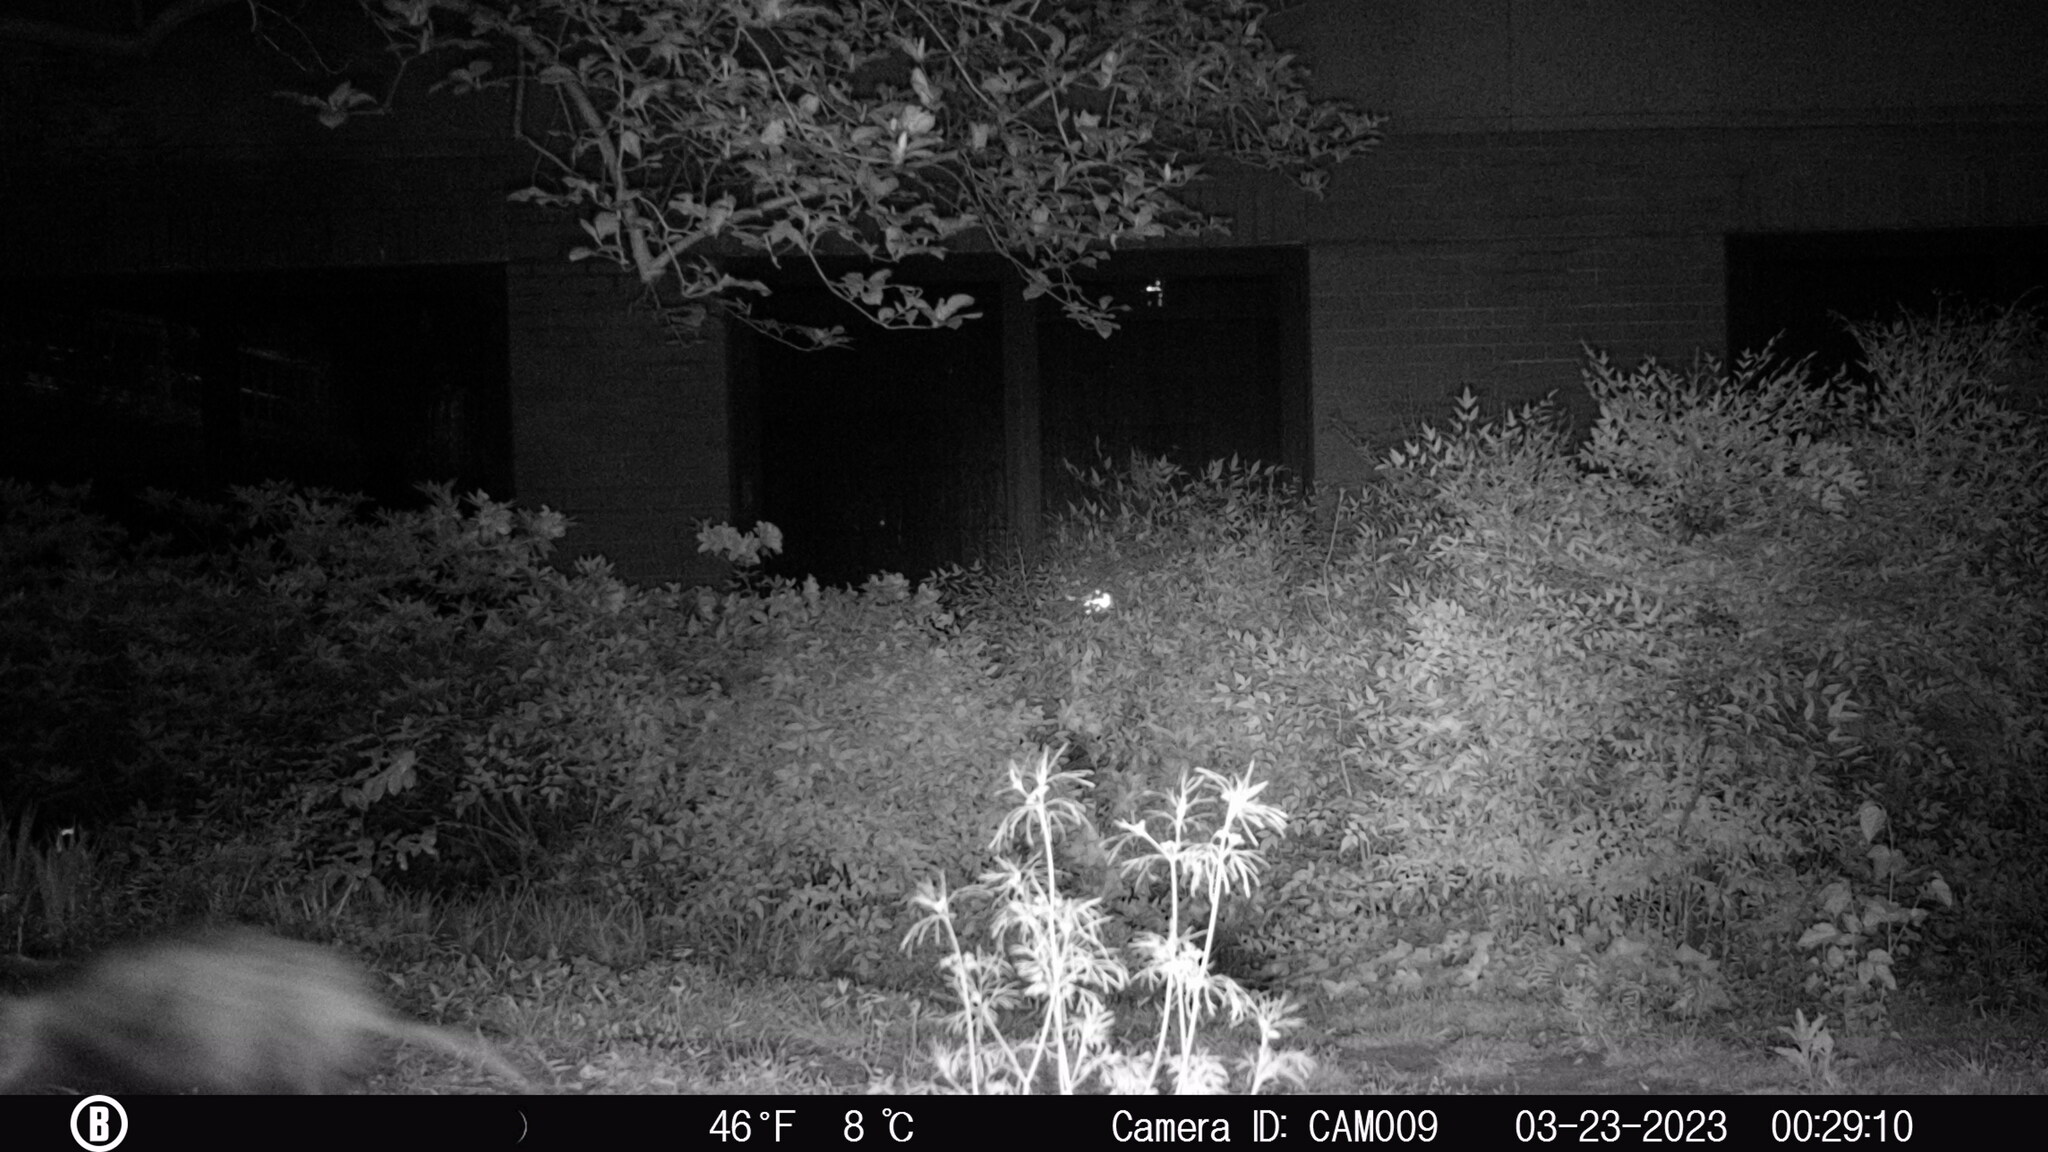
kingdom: Animalia
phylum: Chordata
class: Mammalia
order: Didelphimorphia
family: Didelphidae
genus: Didelphis
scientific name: Didelphis virginiana
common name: Virginia opossum
